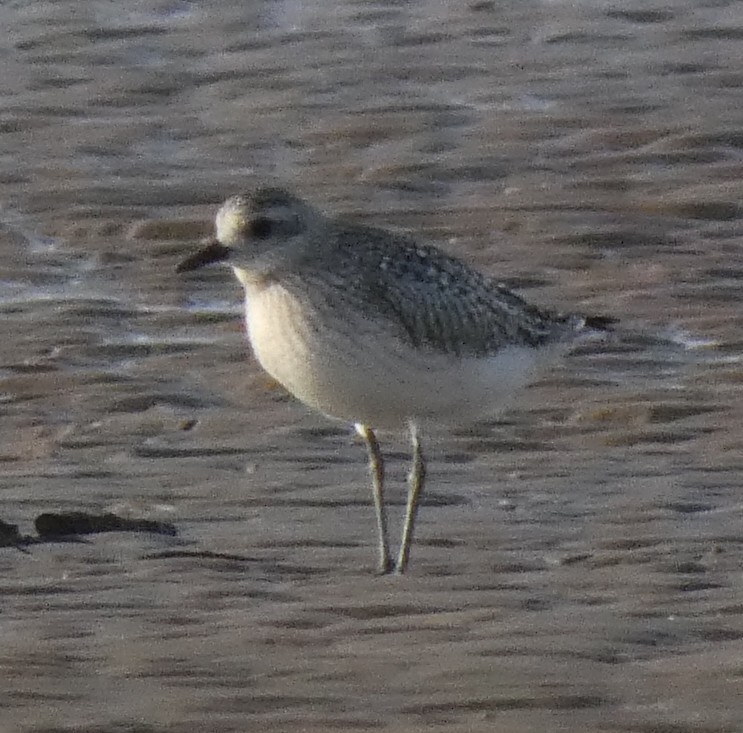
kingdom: Animalia
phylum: Chordata
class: Aves
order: Charadriiformes
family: Charadriidae
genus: Pluvialis
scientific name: Pluvialis squatarola
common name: Grey plover
